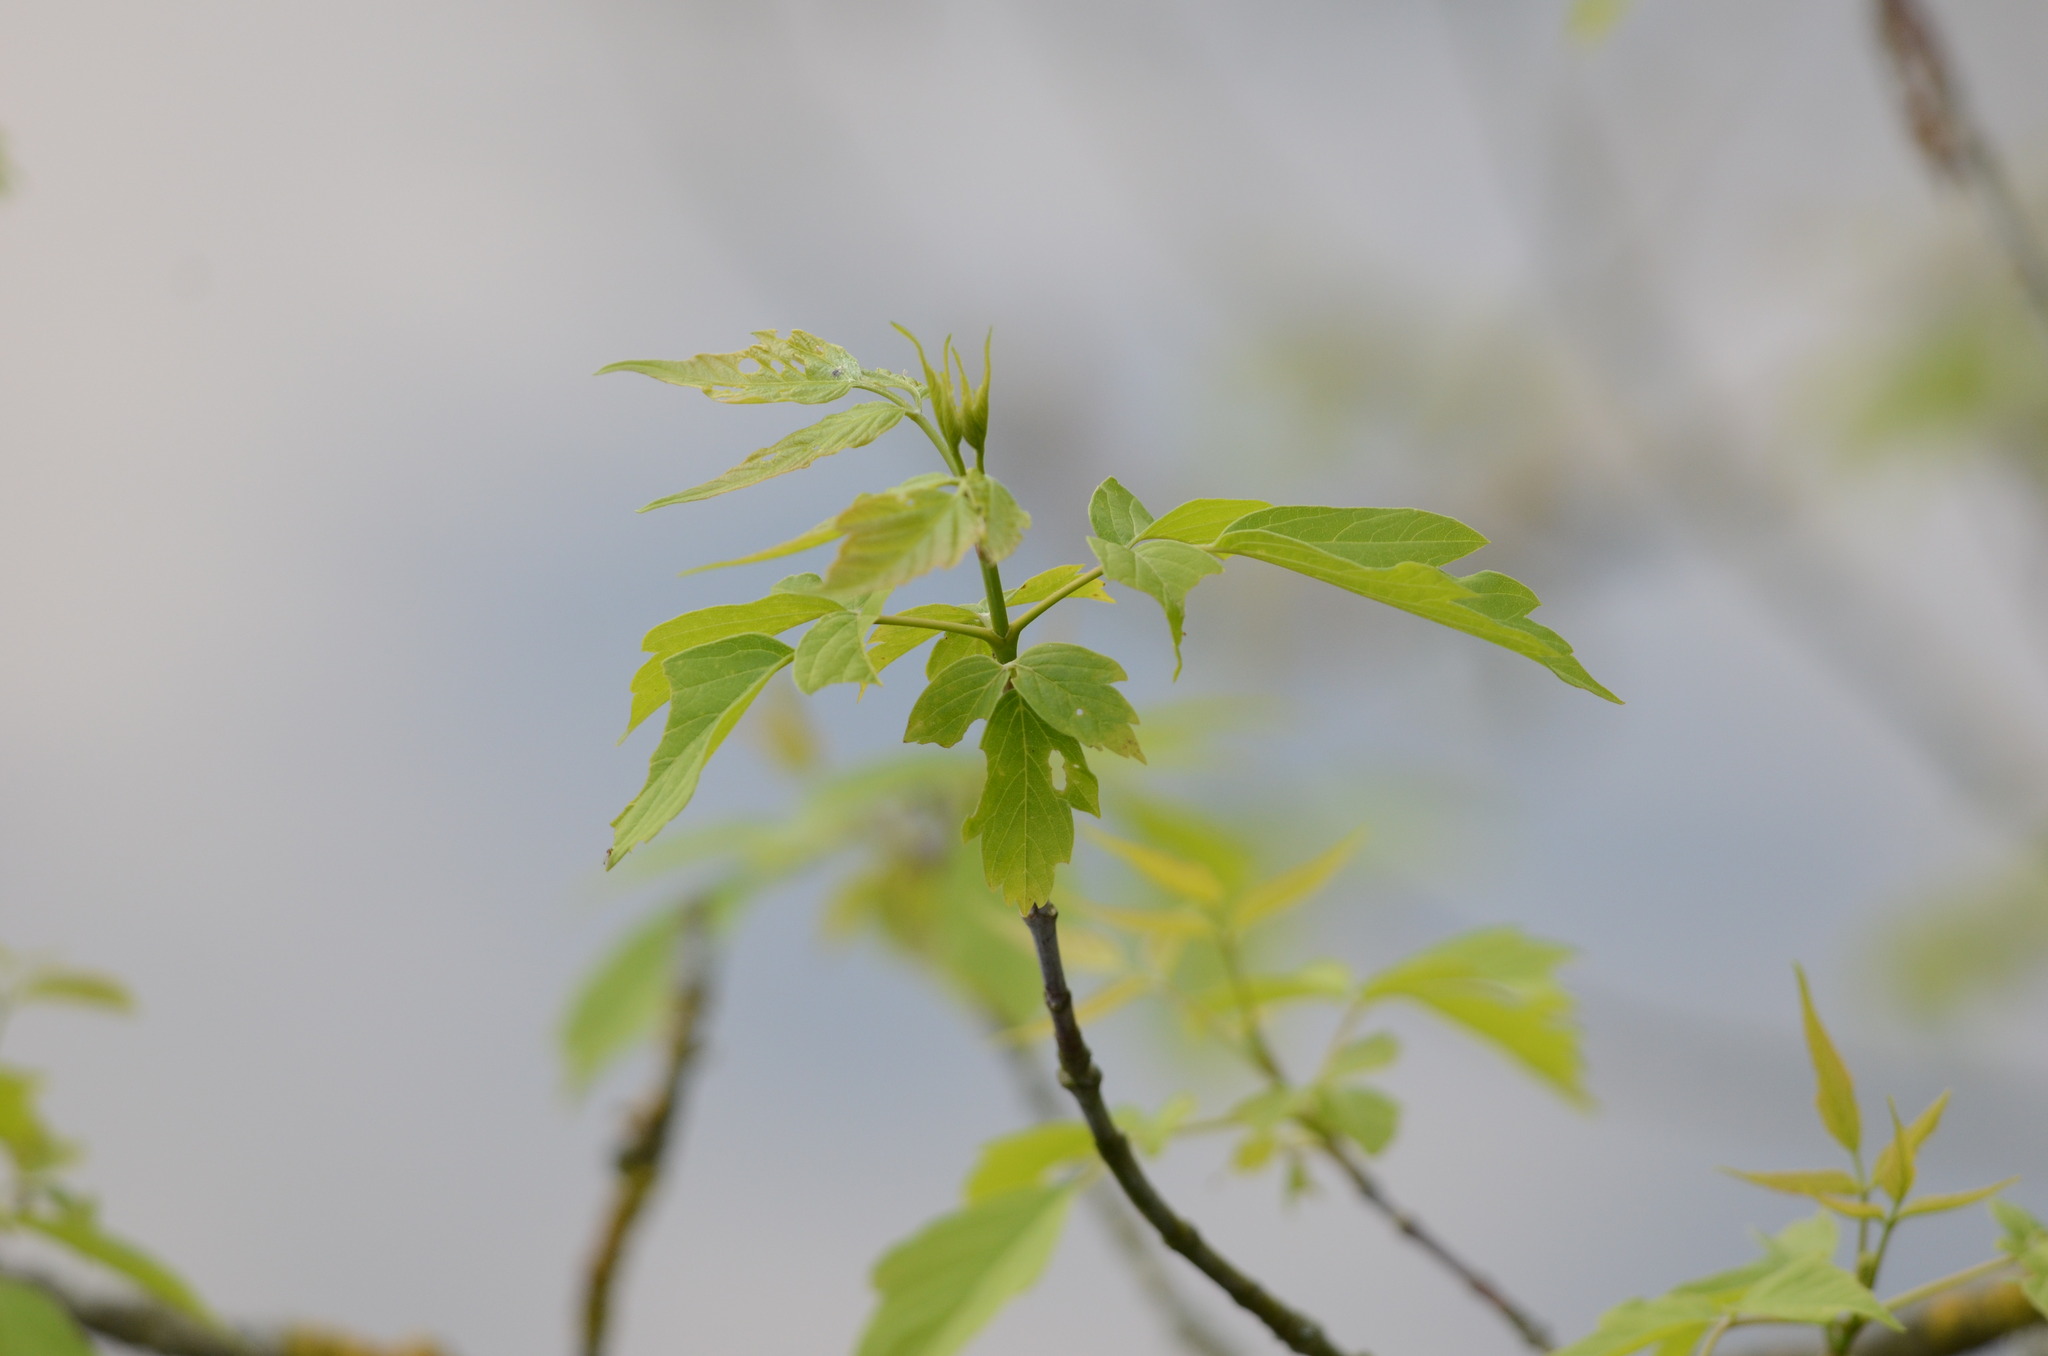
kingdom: Plantae
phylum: Tracheophyta
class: Magnoliopsida
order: Sapindales
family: Sapindaceae
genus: Acer
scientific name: Acer negundo
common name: Ashleaf maple
